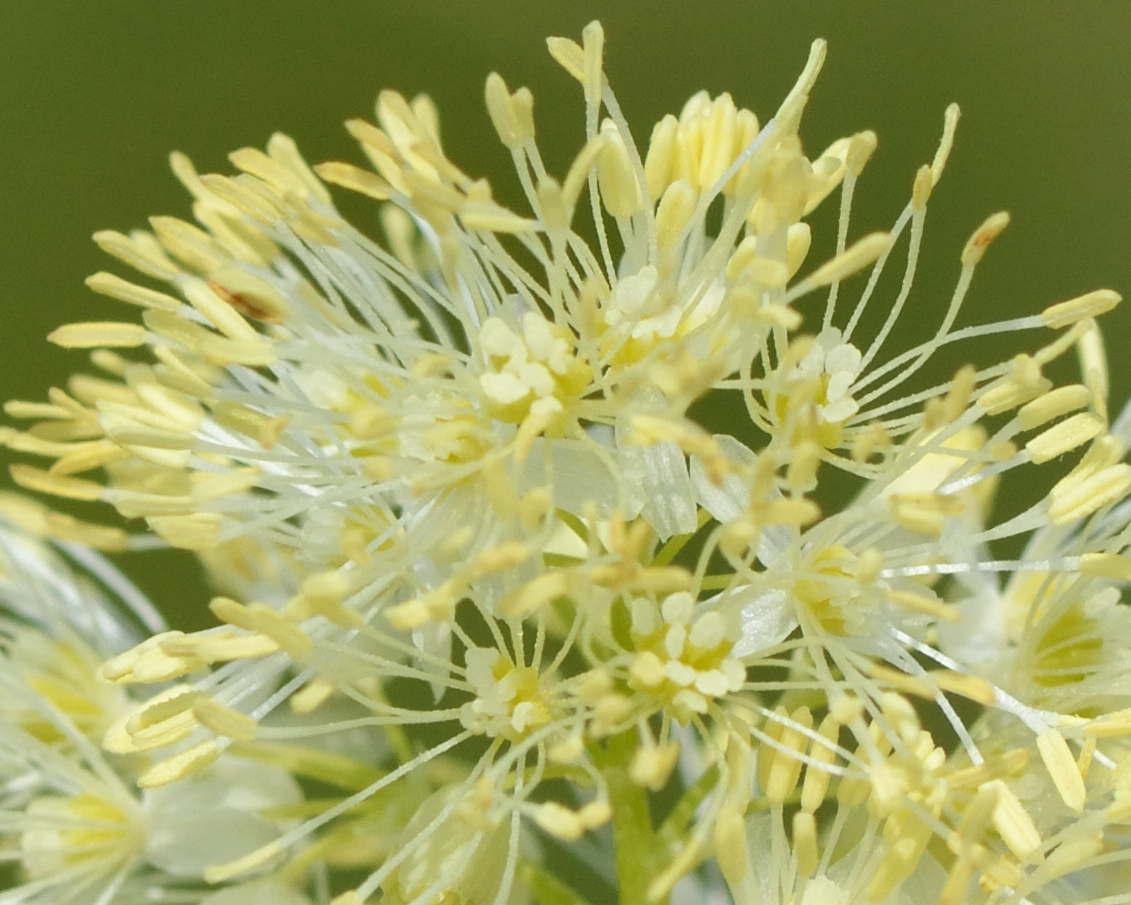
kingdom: Plantae
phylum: Tracheophyta
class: Magnoliopsida
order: Ranunculales
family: Ranunculaceae
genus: Thalictrum
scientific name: Thalictrum lucidum
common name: Shining meadow-rue
